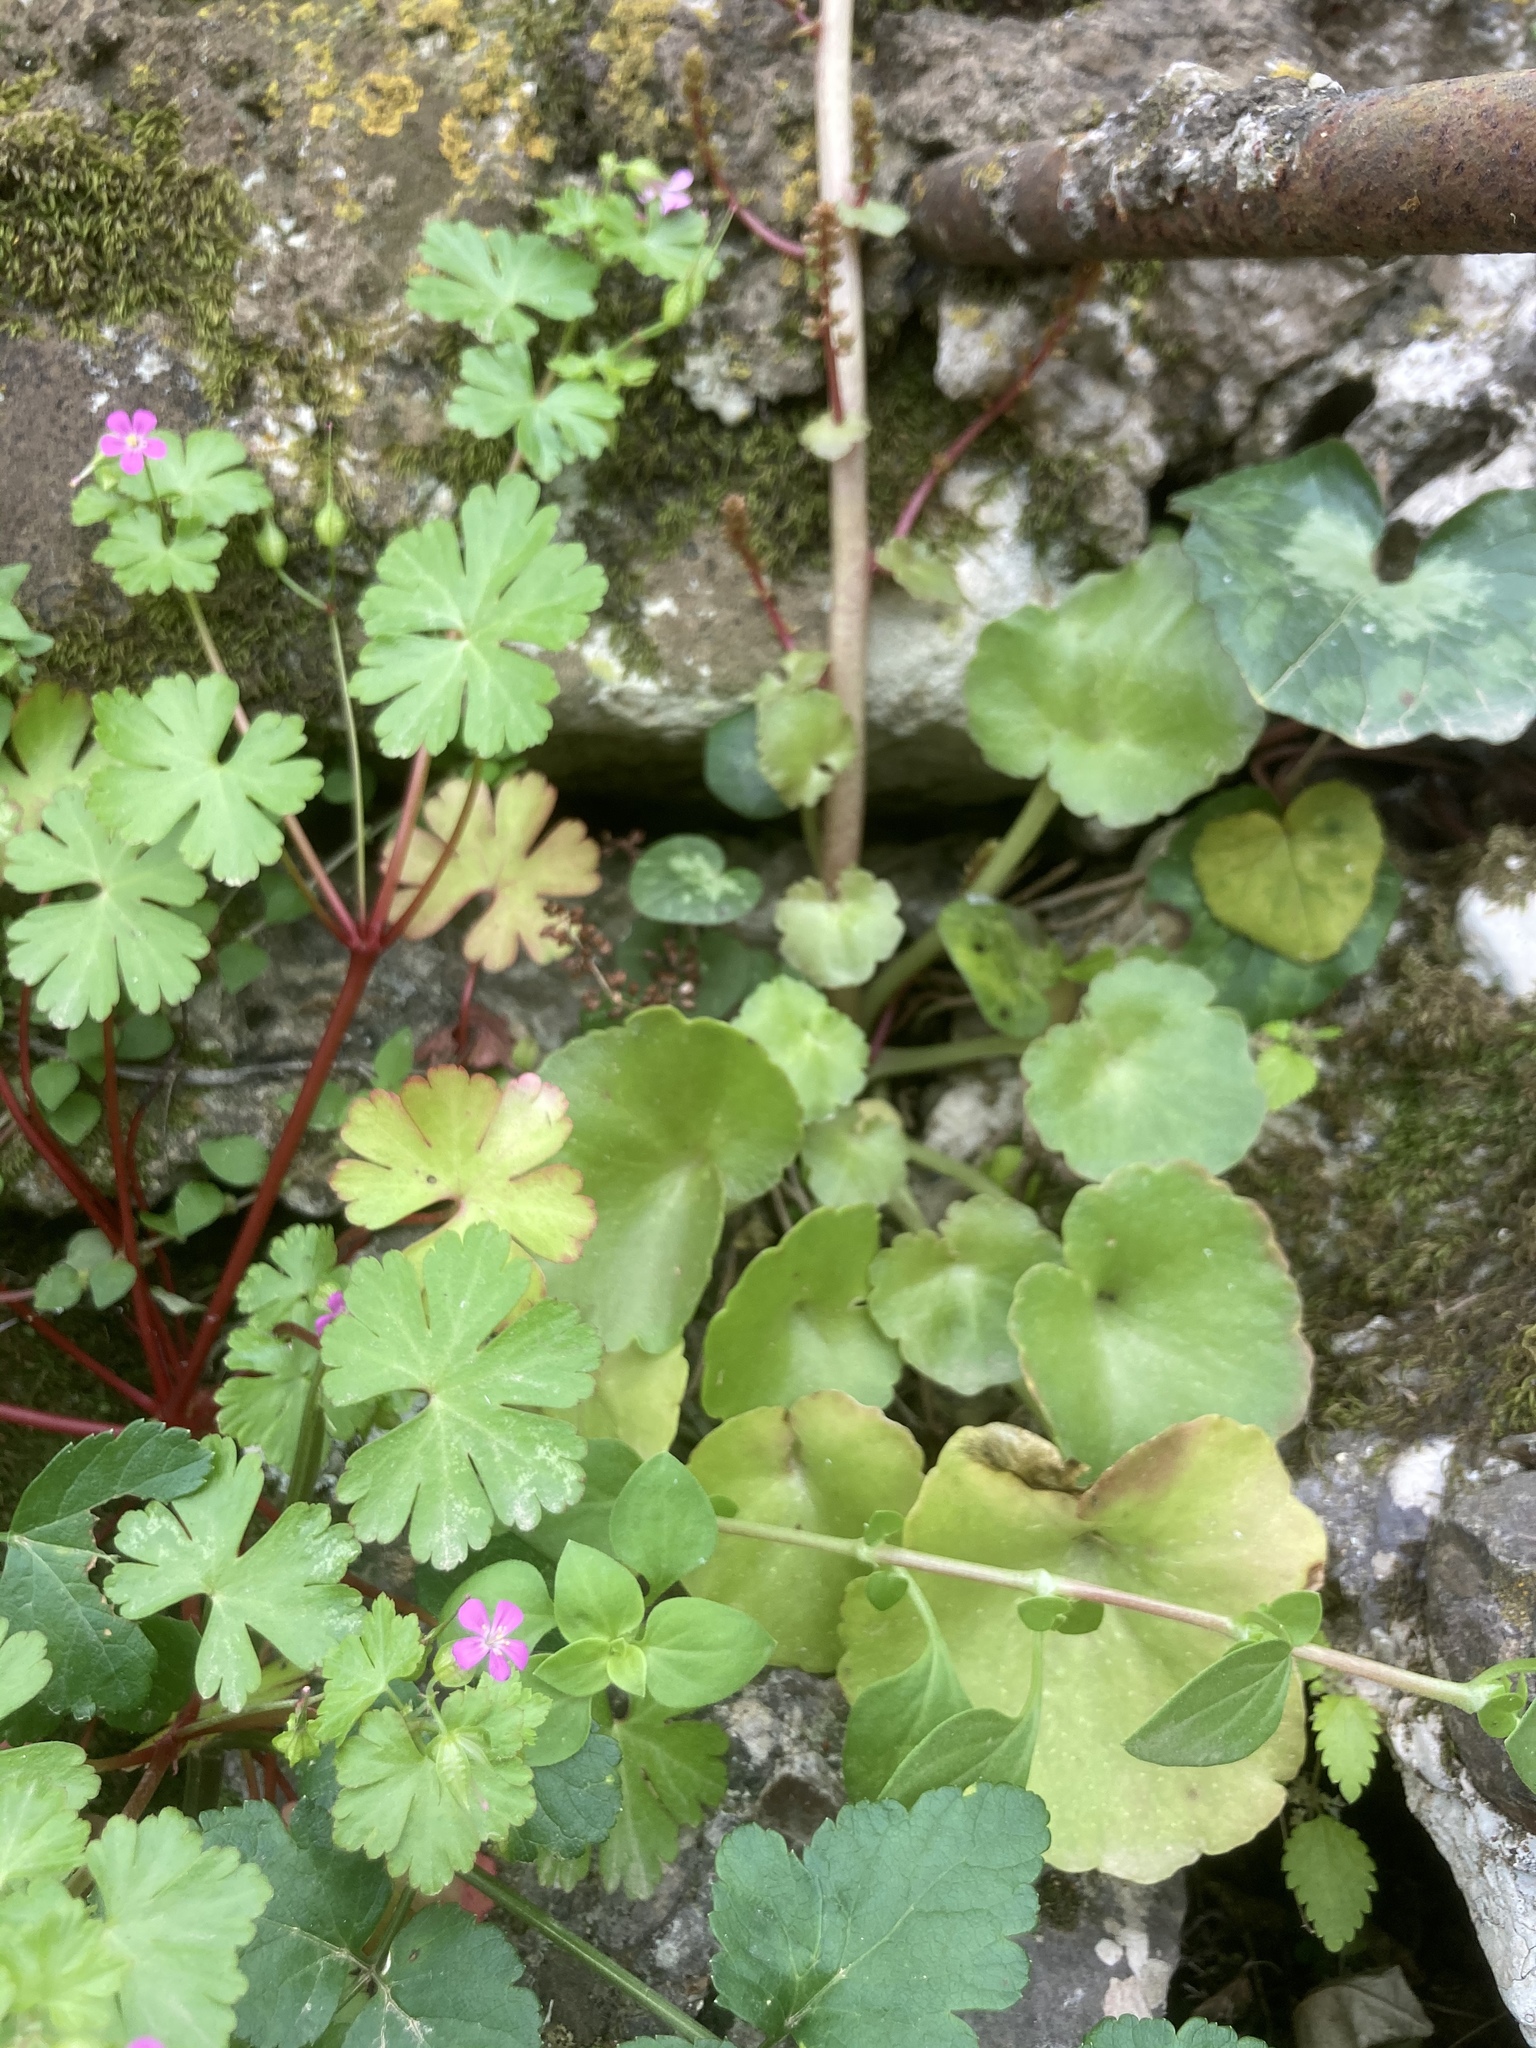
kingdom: Plantae
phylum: Tracheophyta
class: Magnoliopsida
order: Ericales
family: Primulaceae
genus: Cyclamen
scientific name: Cyclamen hederifolium
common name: Sowbread
